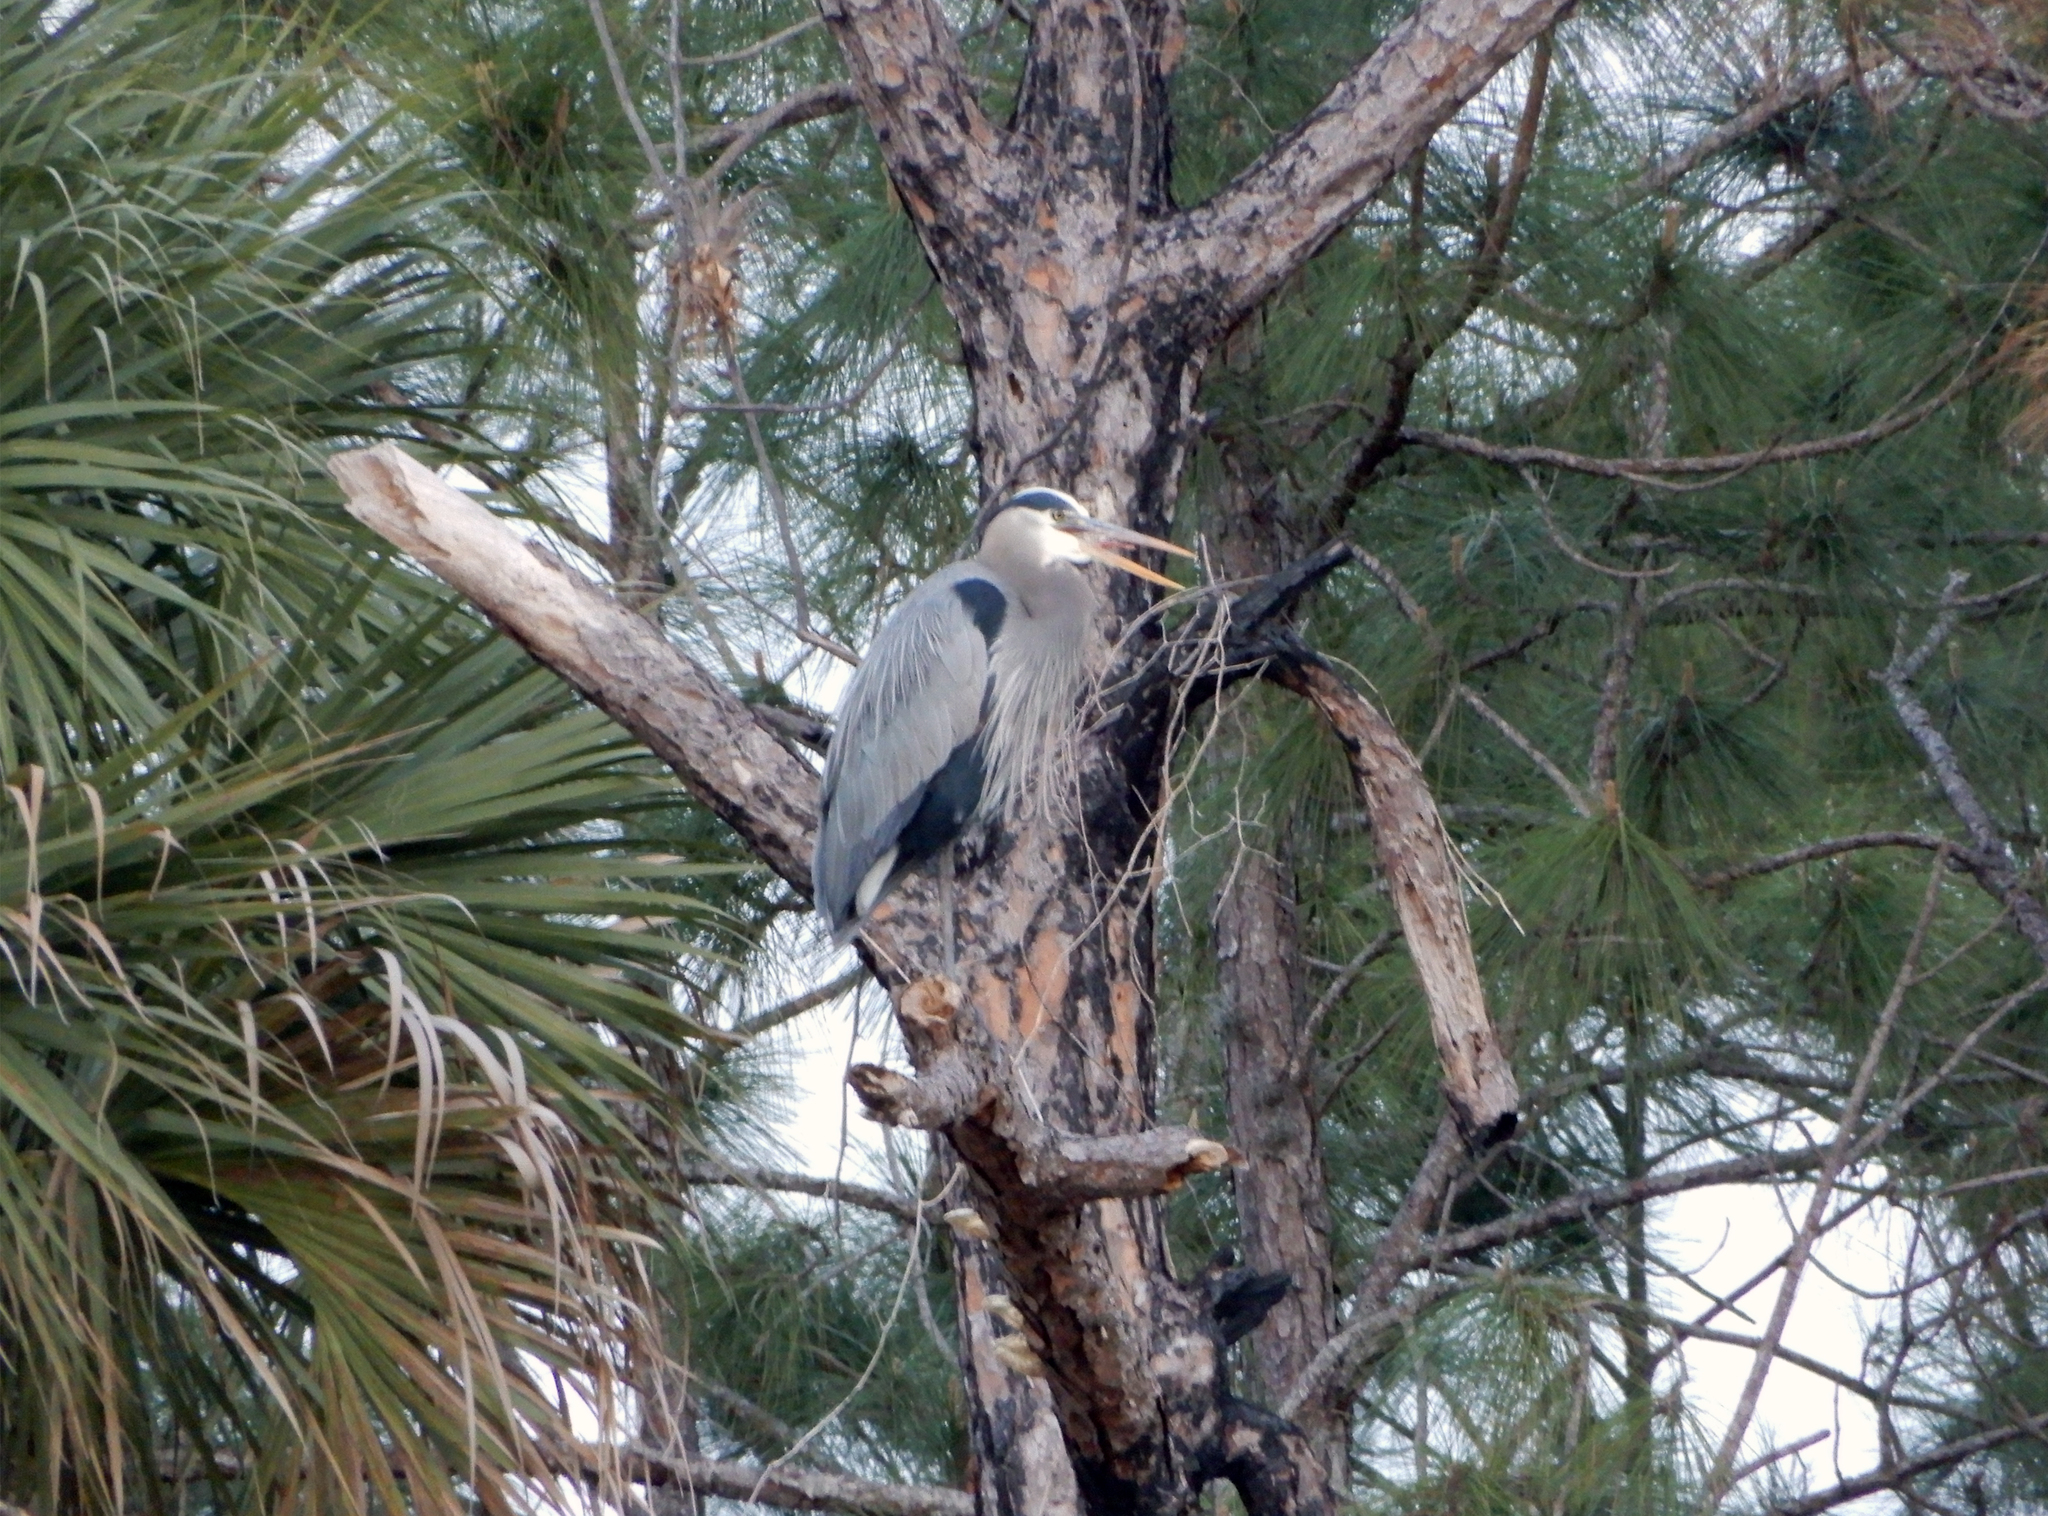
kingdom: Animalia
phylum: Chordata
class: Aves
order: Pelecaniformes
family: Ardeidae
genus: Ardea
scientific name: Ardea herodias
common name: Great blue heron
